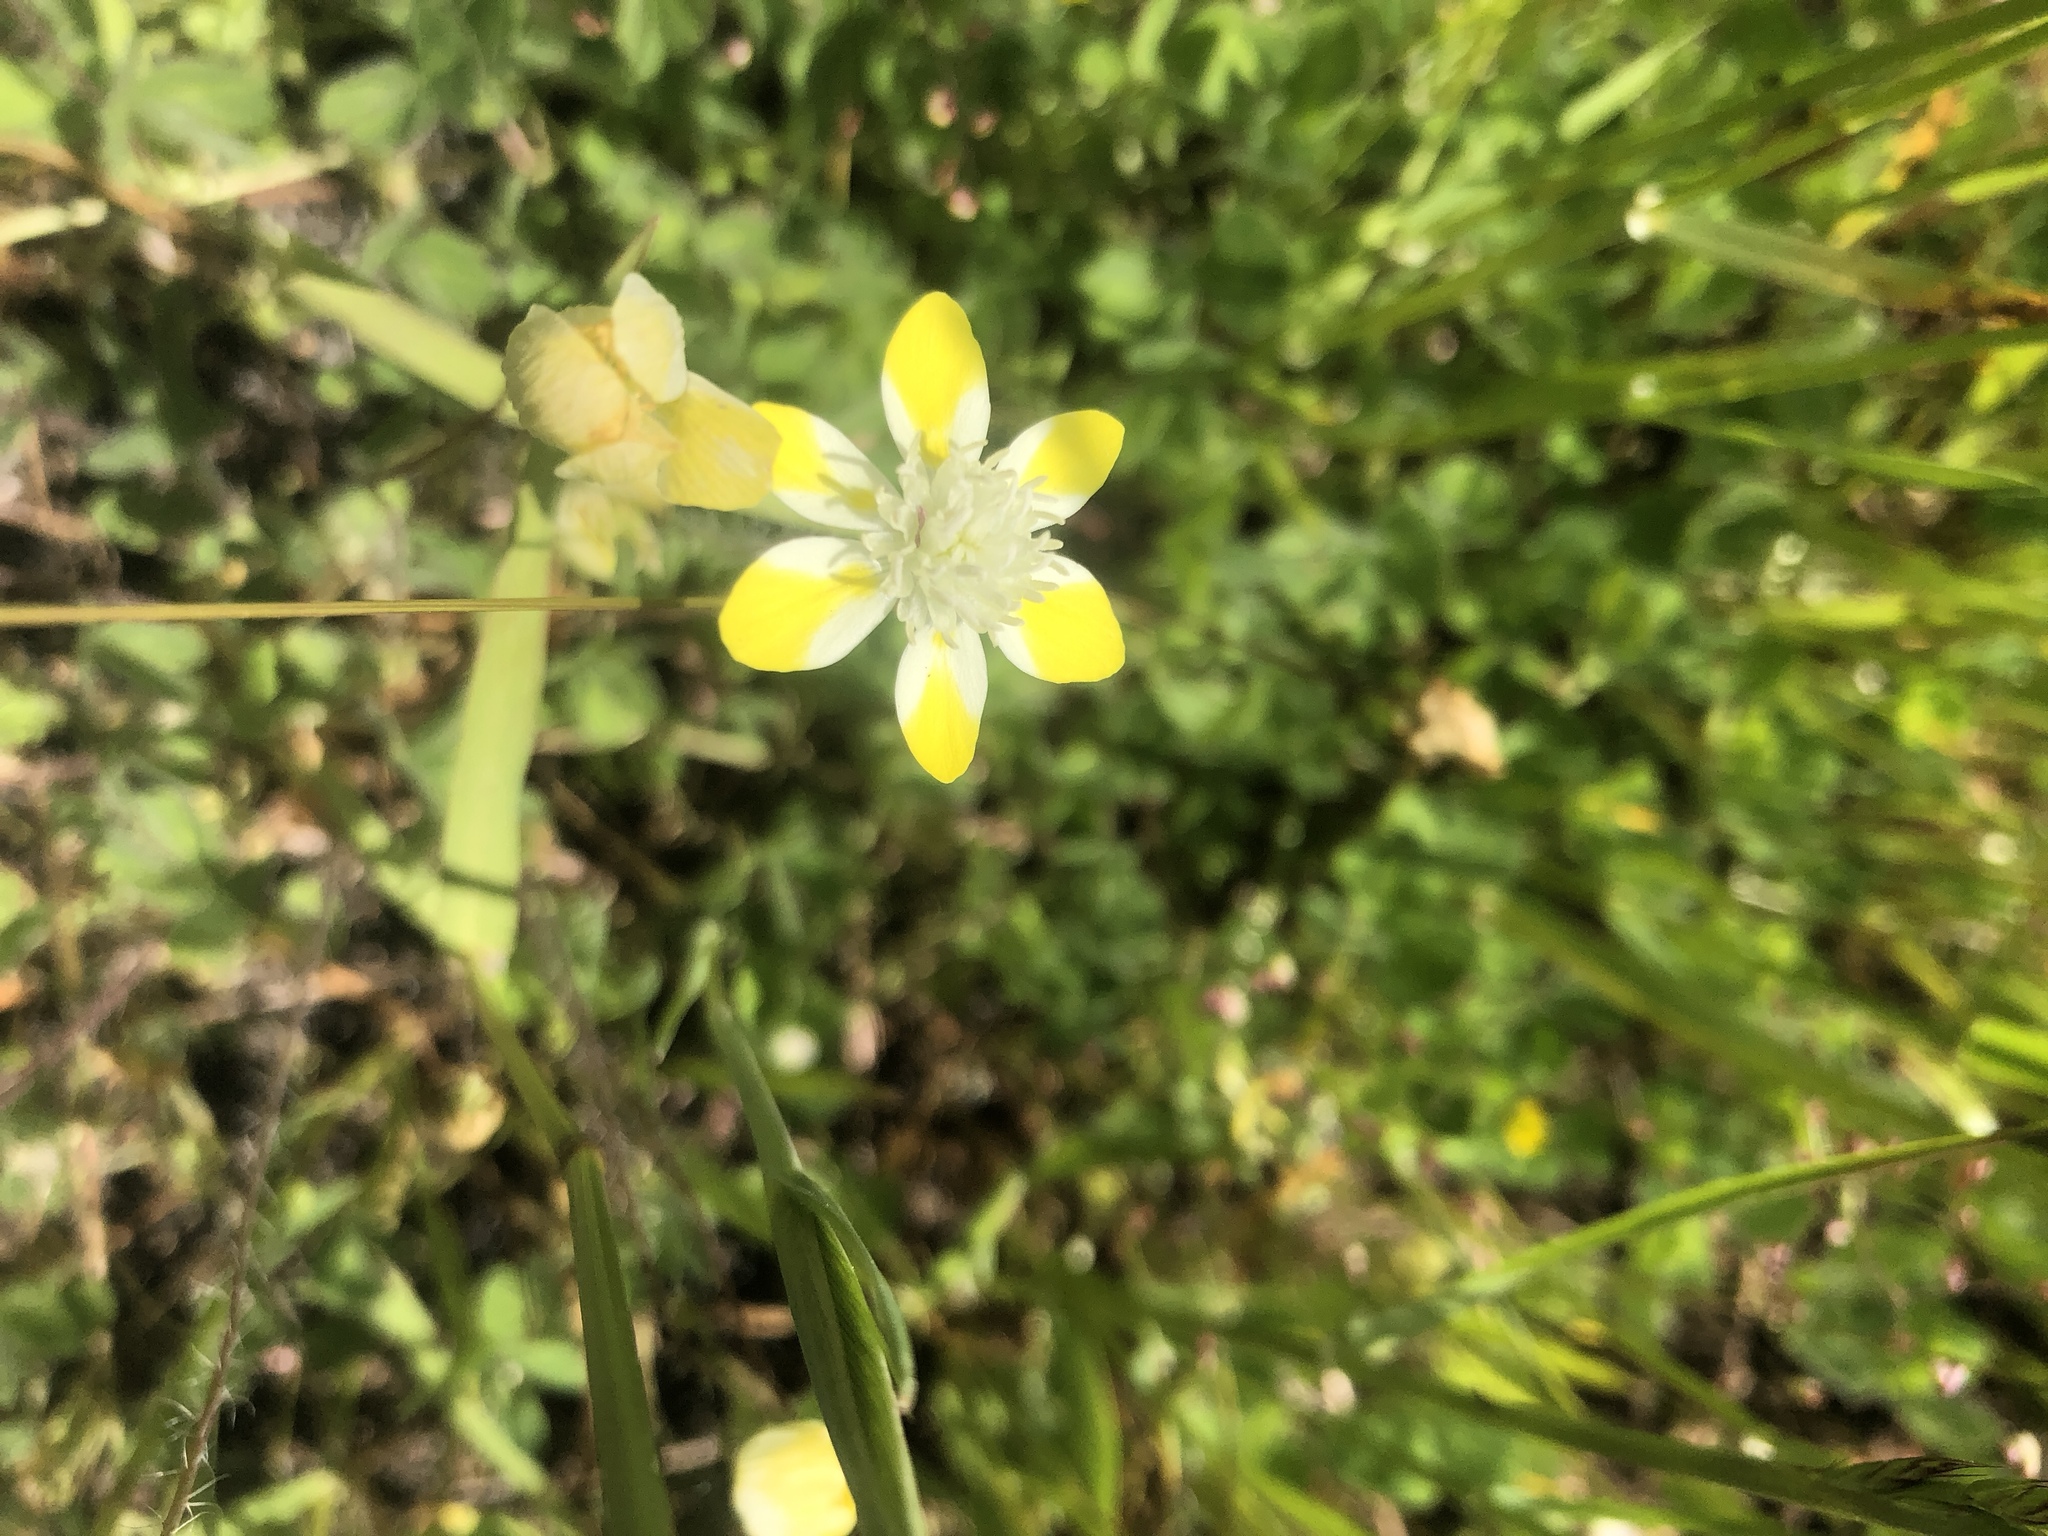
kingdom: Plantae
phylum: Tracheophyta
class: Magnoliopsida
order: Ranunculales
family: Papaveraceae
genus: Platystemon
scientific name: Platystemon californicus
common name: Cream-cups
